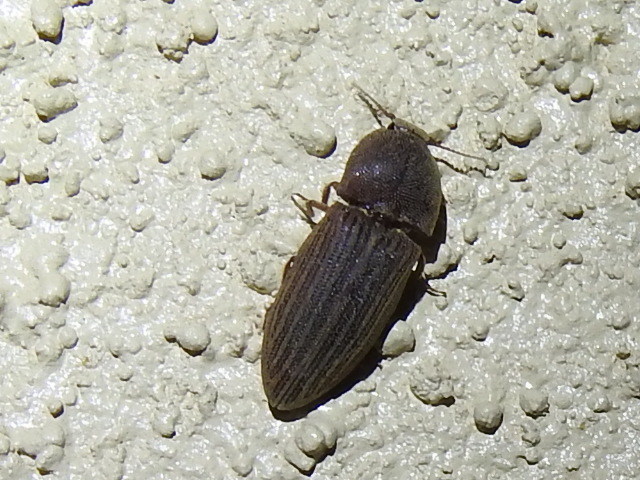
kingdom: Animalia
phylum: Arthropoda
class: Insecta
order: Coleoptera
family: Elateridae
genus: Agrypnus
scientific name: Agrypnus
